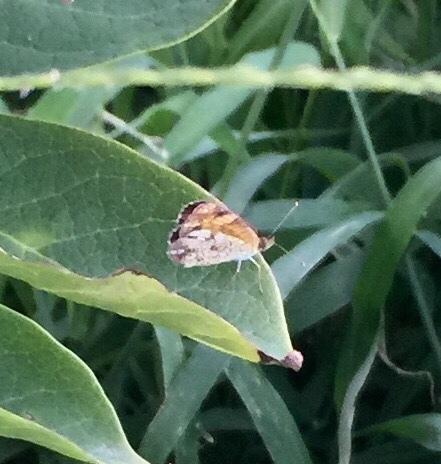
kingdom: Animalia
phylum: Arthropoda
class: Insecta
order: Lepidoptera
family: Nymphalidae
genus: Phyciodes
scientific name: Phyciodes tharos
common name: Pearl crescent
